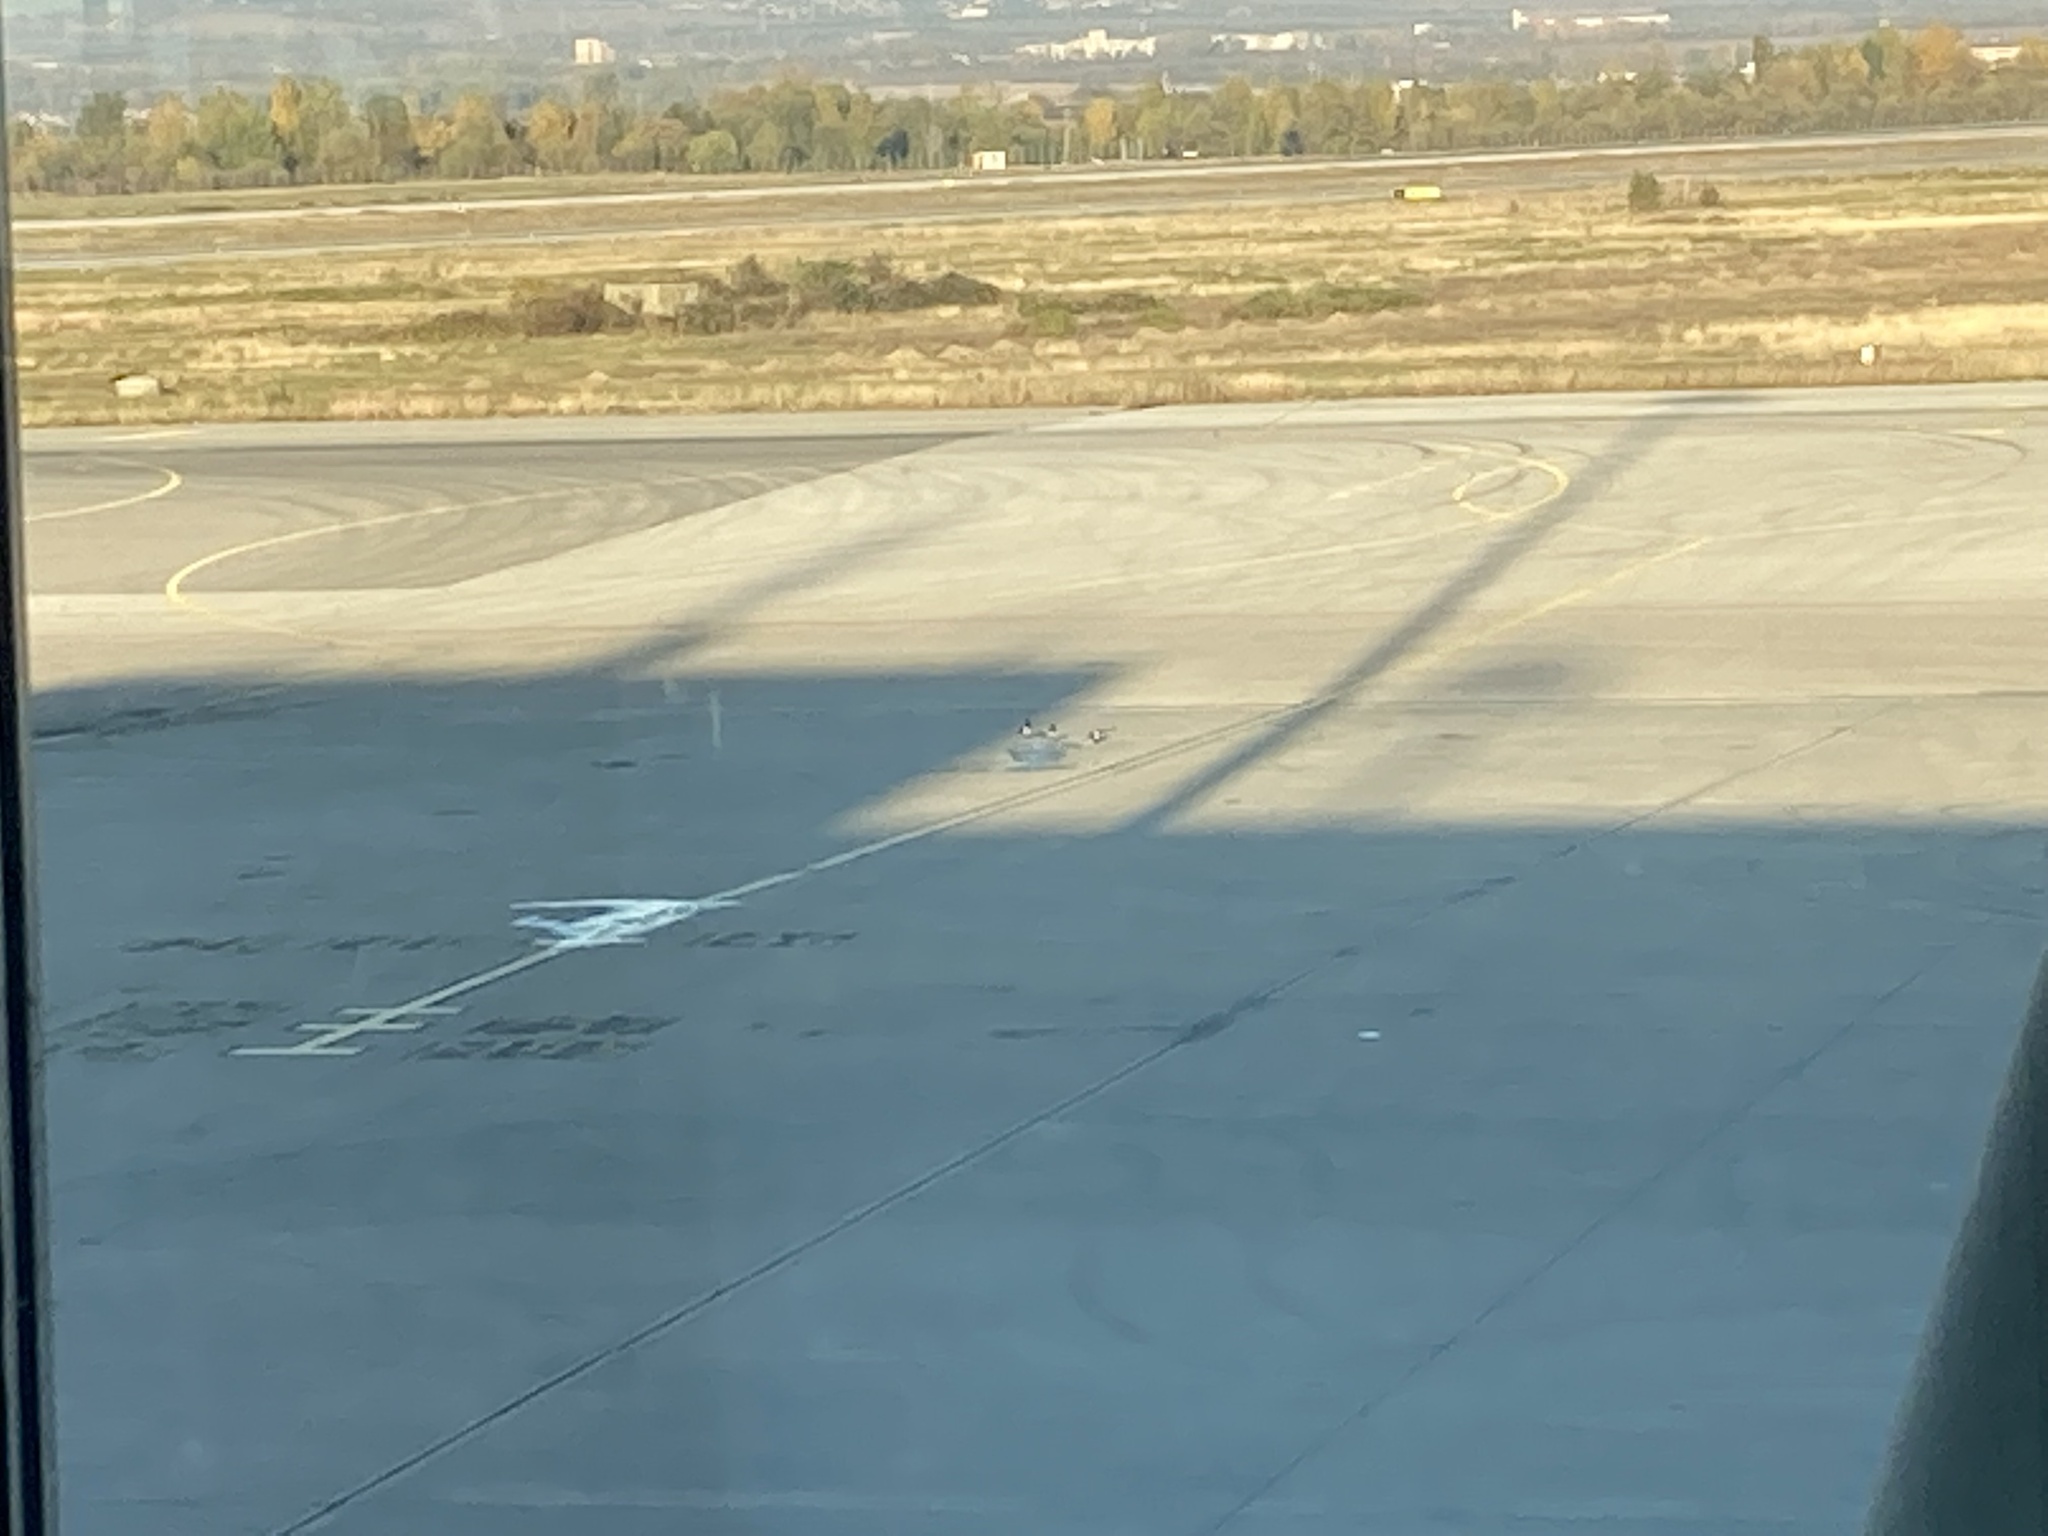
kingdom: Animalia
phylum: Chordata
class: Aves
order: Passeriformes
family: Corvidae
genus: Pica
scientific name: Pica pica
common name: Eurasian magpie
